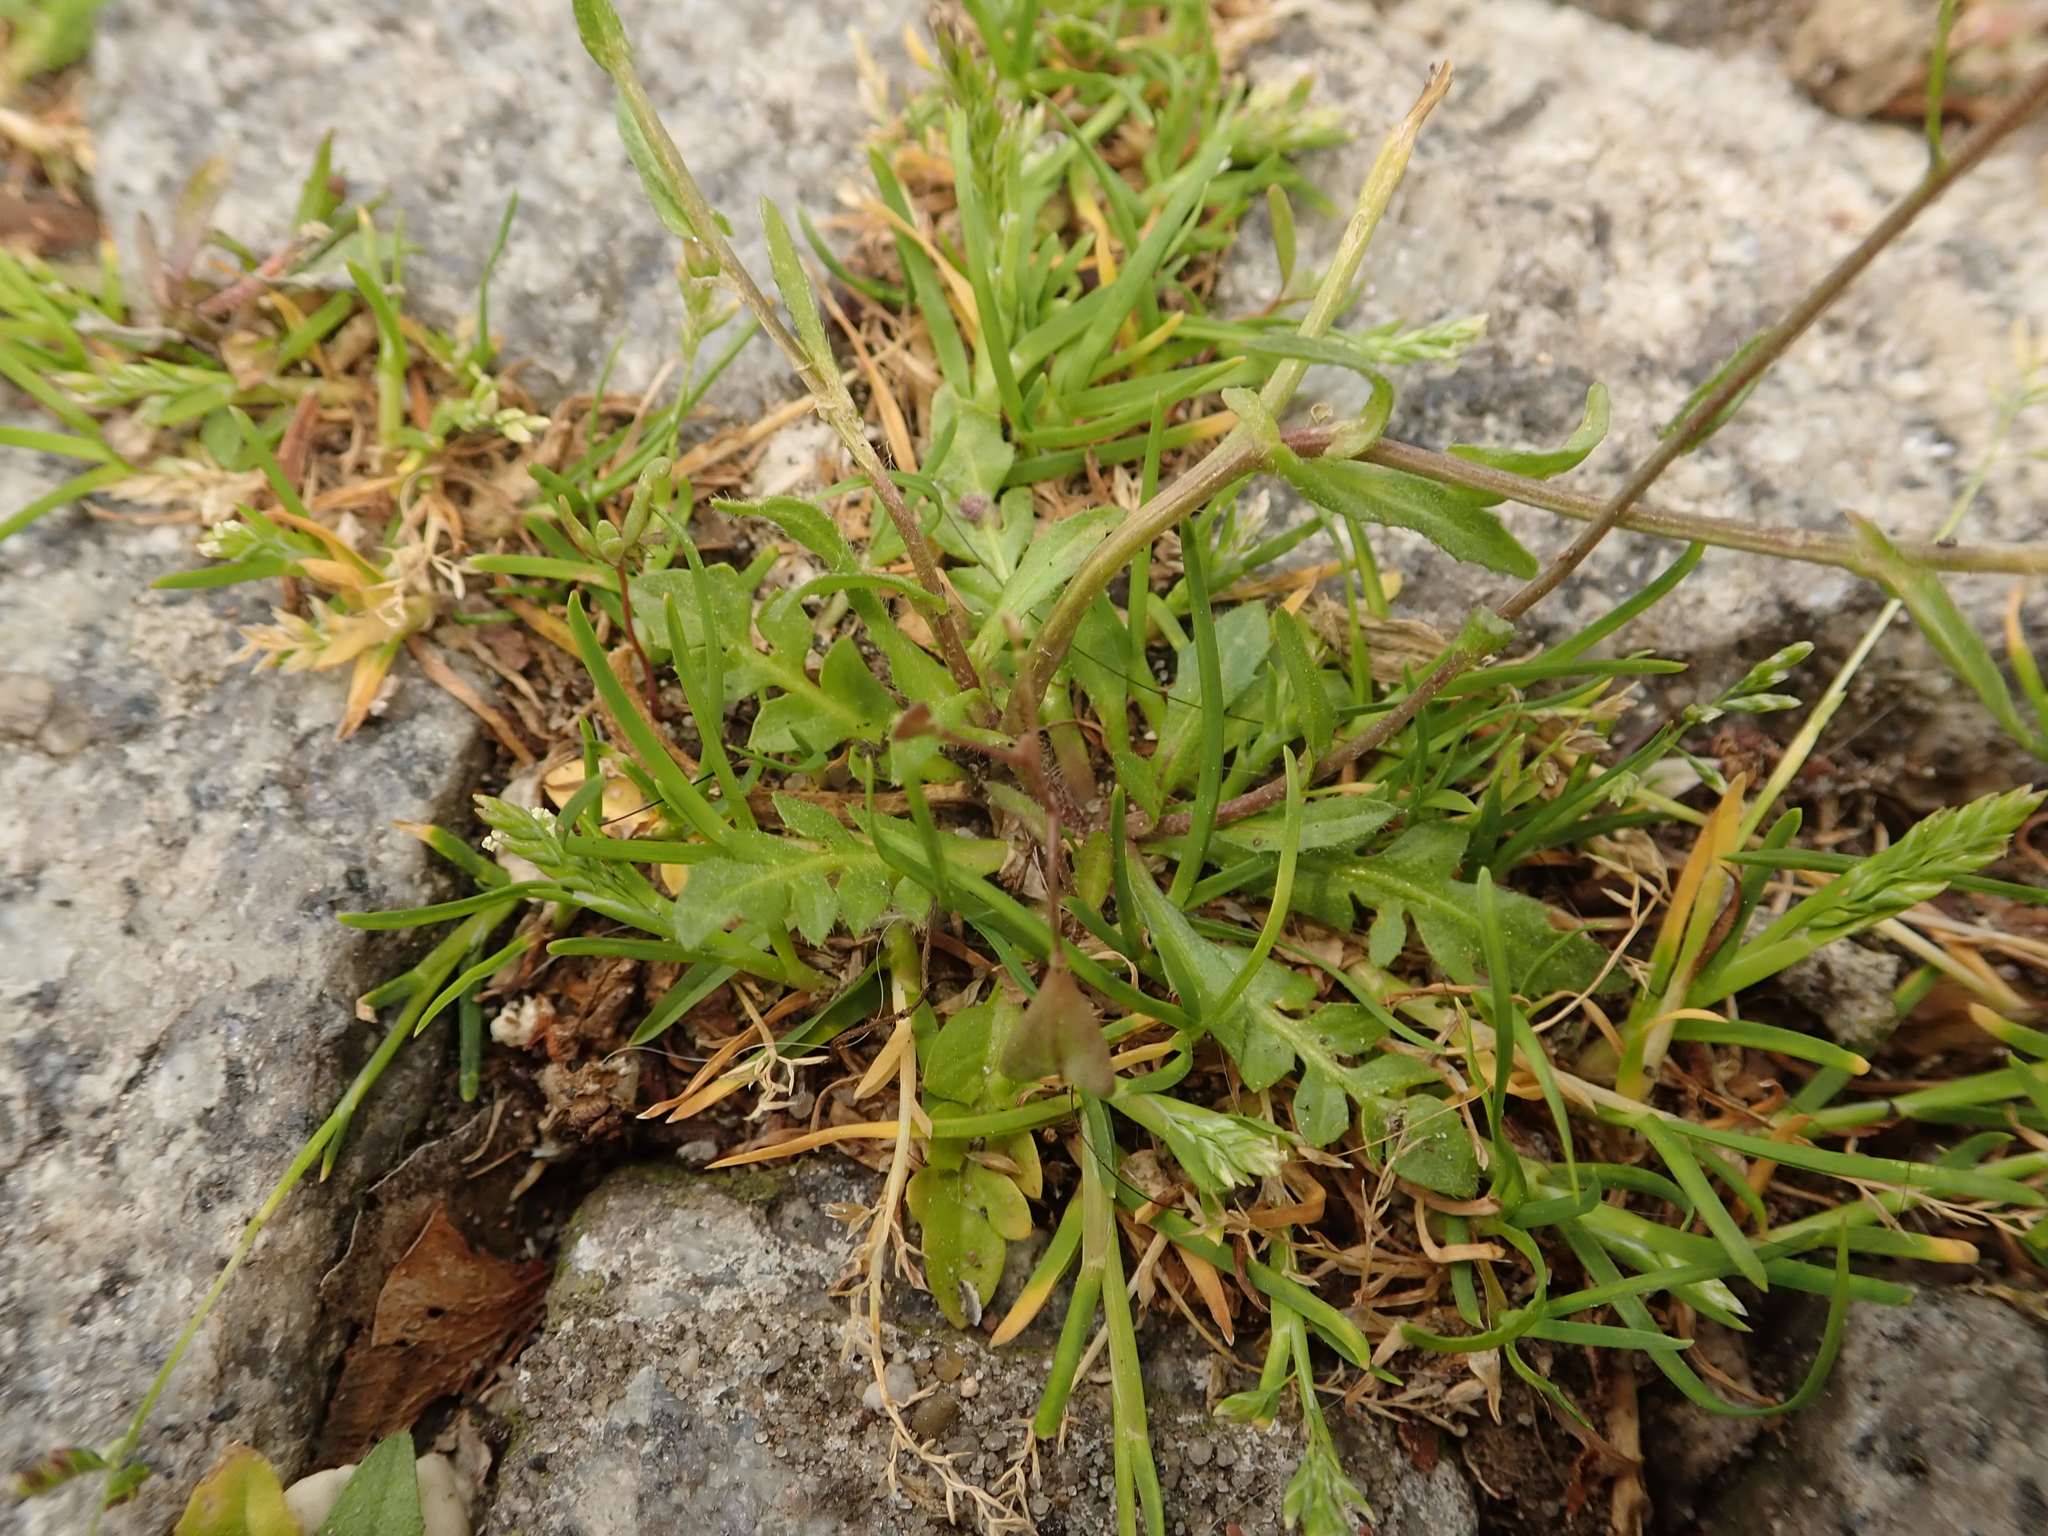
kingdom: Plantae
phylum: Tracheophyta
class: Magnoliopsida
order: Brassicales
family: Brassicaceae
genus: Capsella
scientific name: Capsella bursa-pastoris
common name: Shepherd's purse
